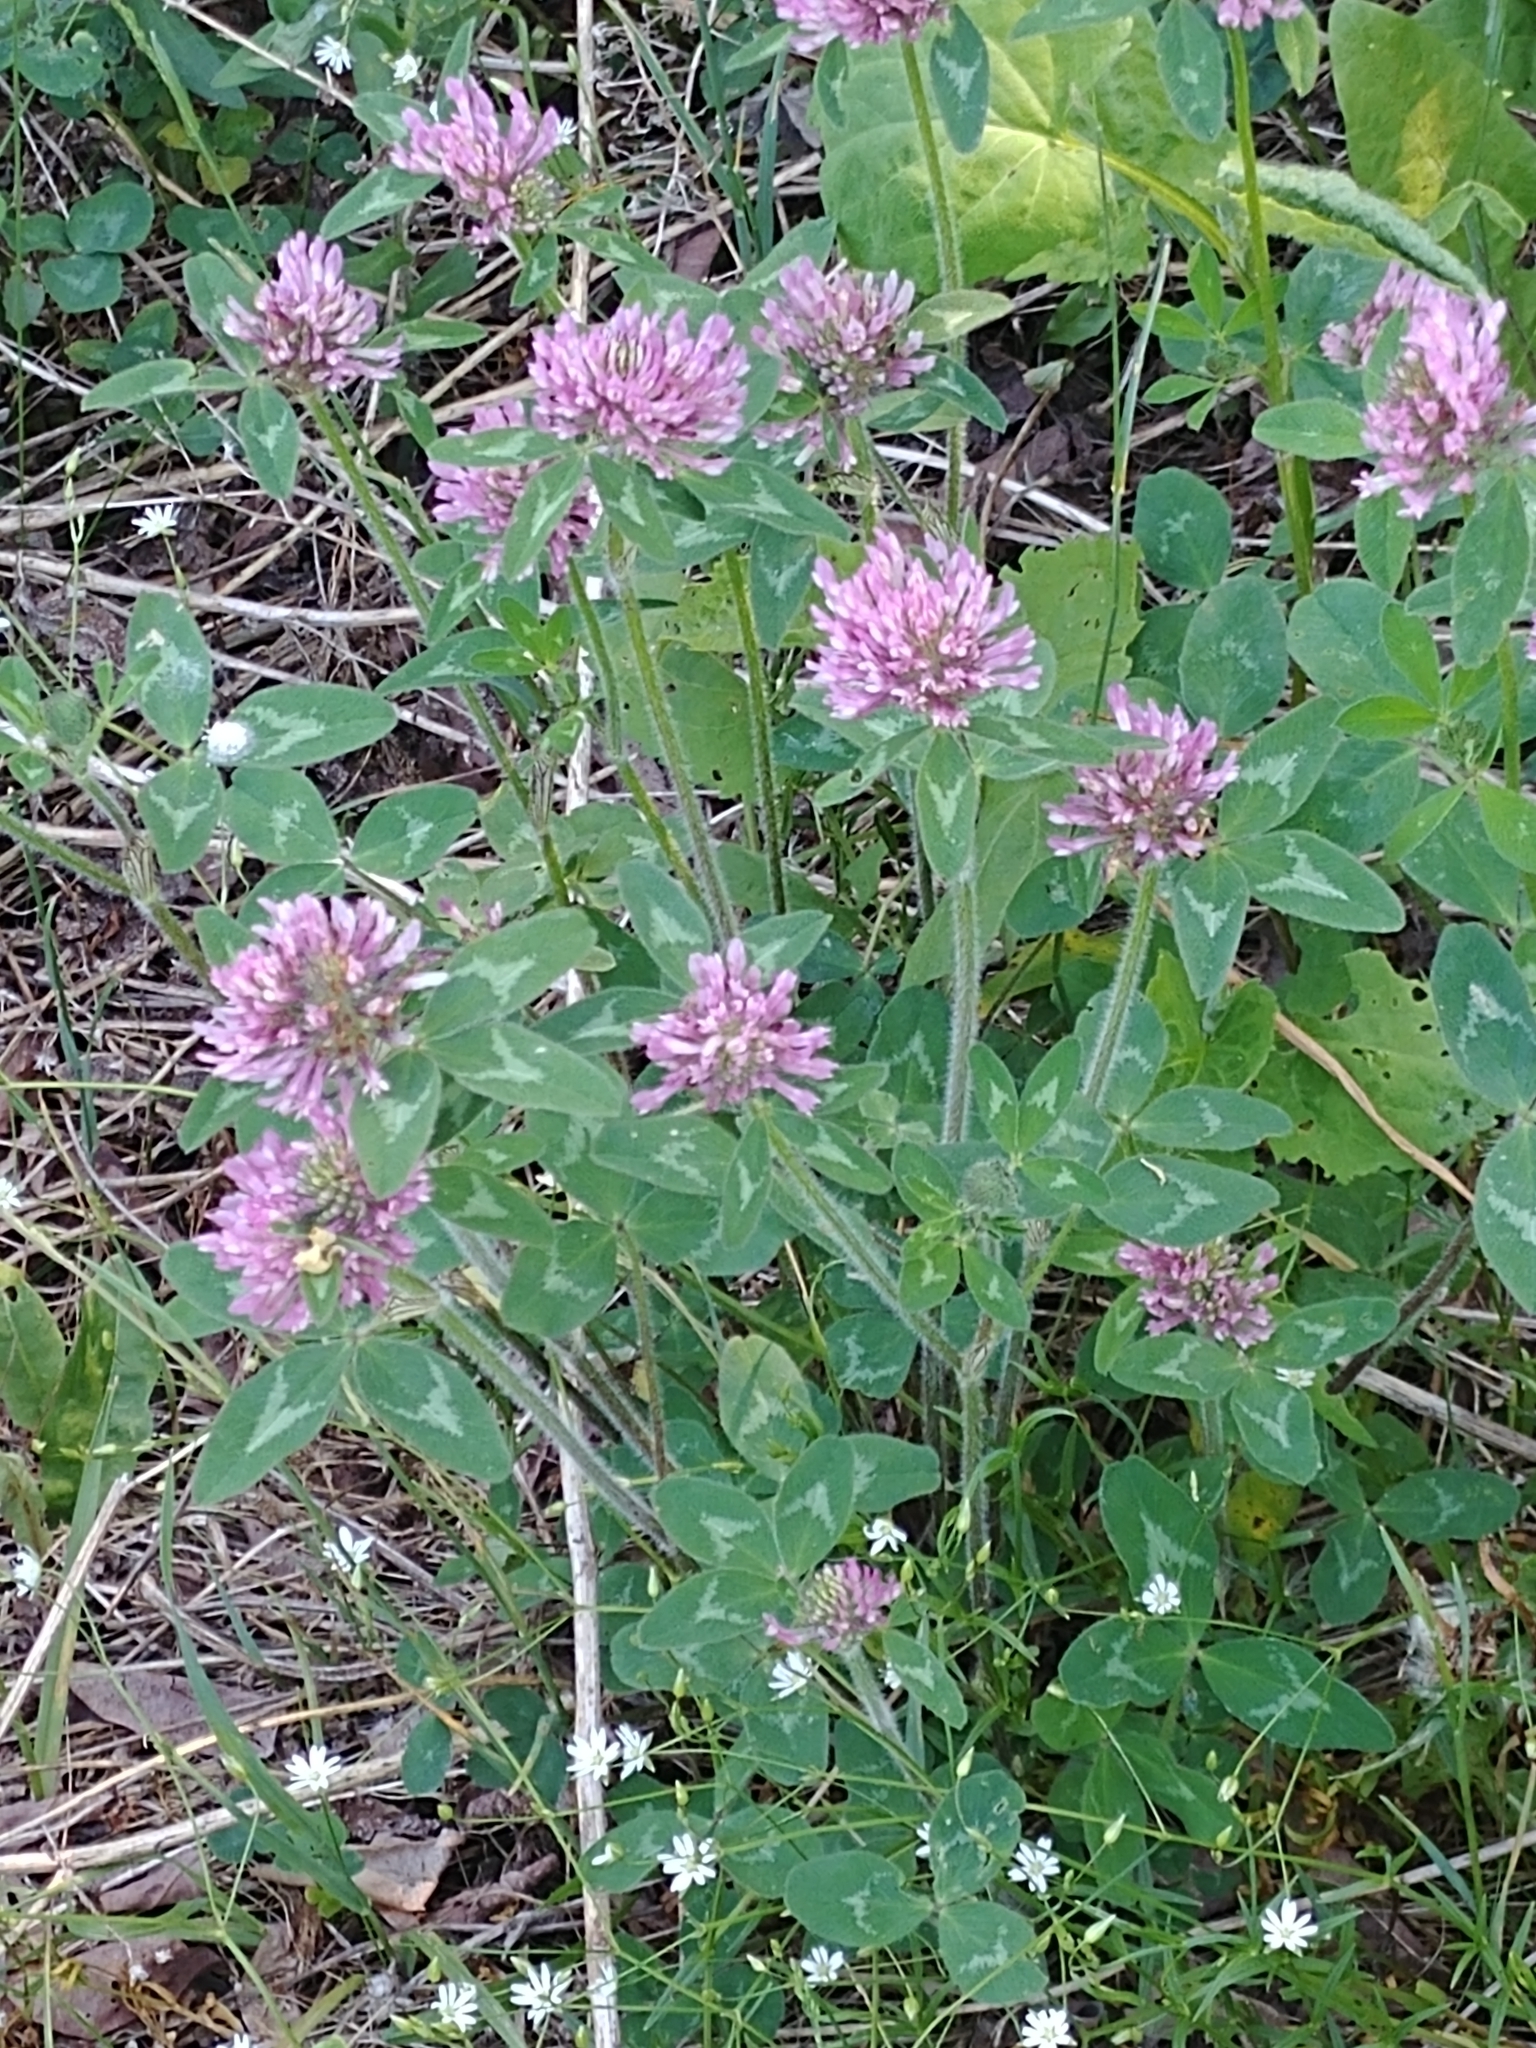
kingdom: Plantae
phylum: Tracheophyta
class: Magnoliopsida
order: Fabales
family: Fabaceae
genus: Trifolium
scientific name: Trifolium pratense
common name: Red clover
